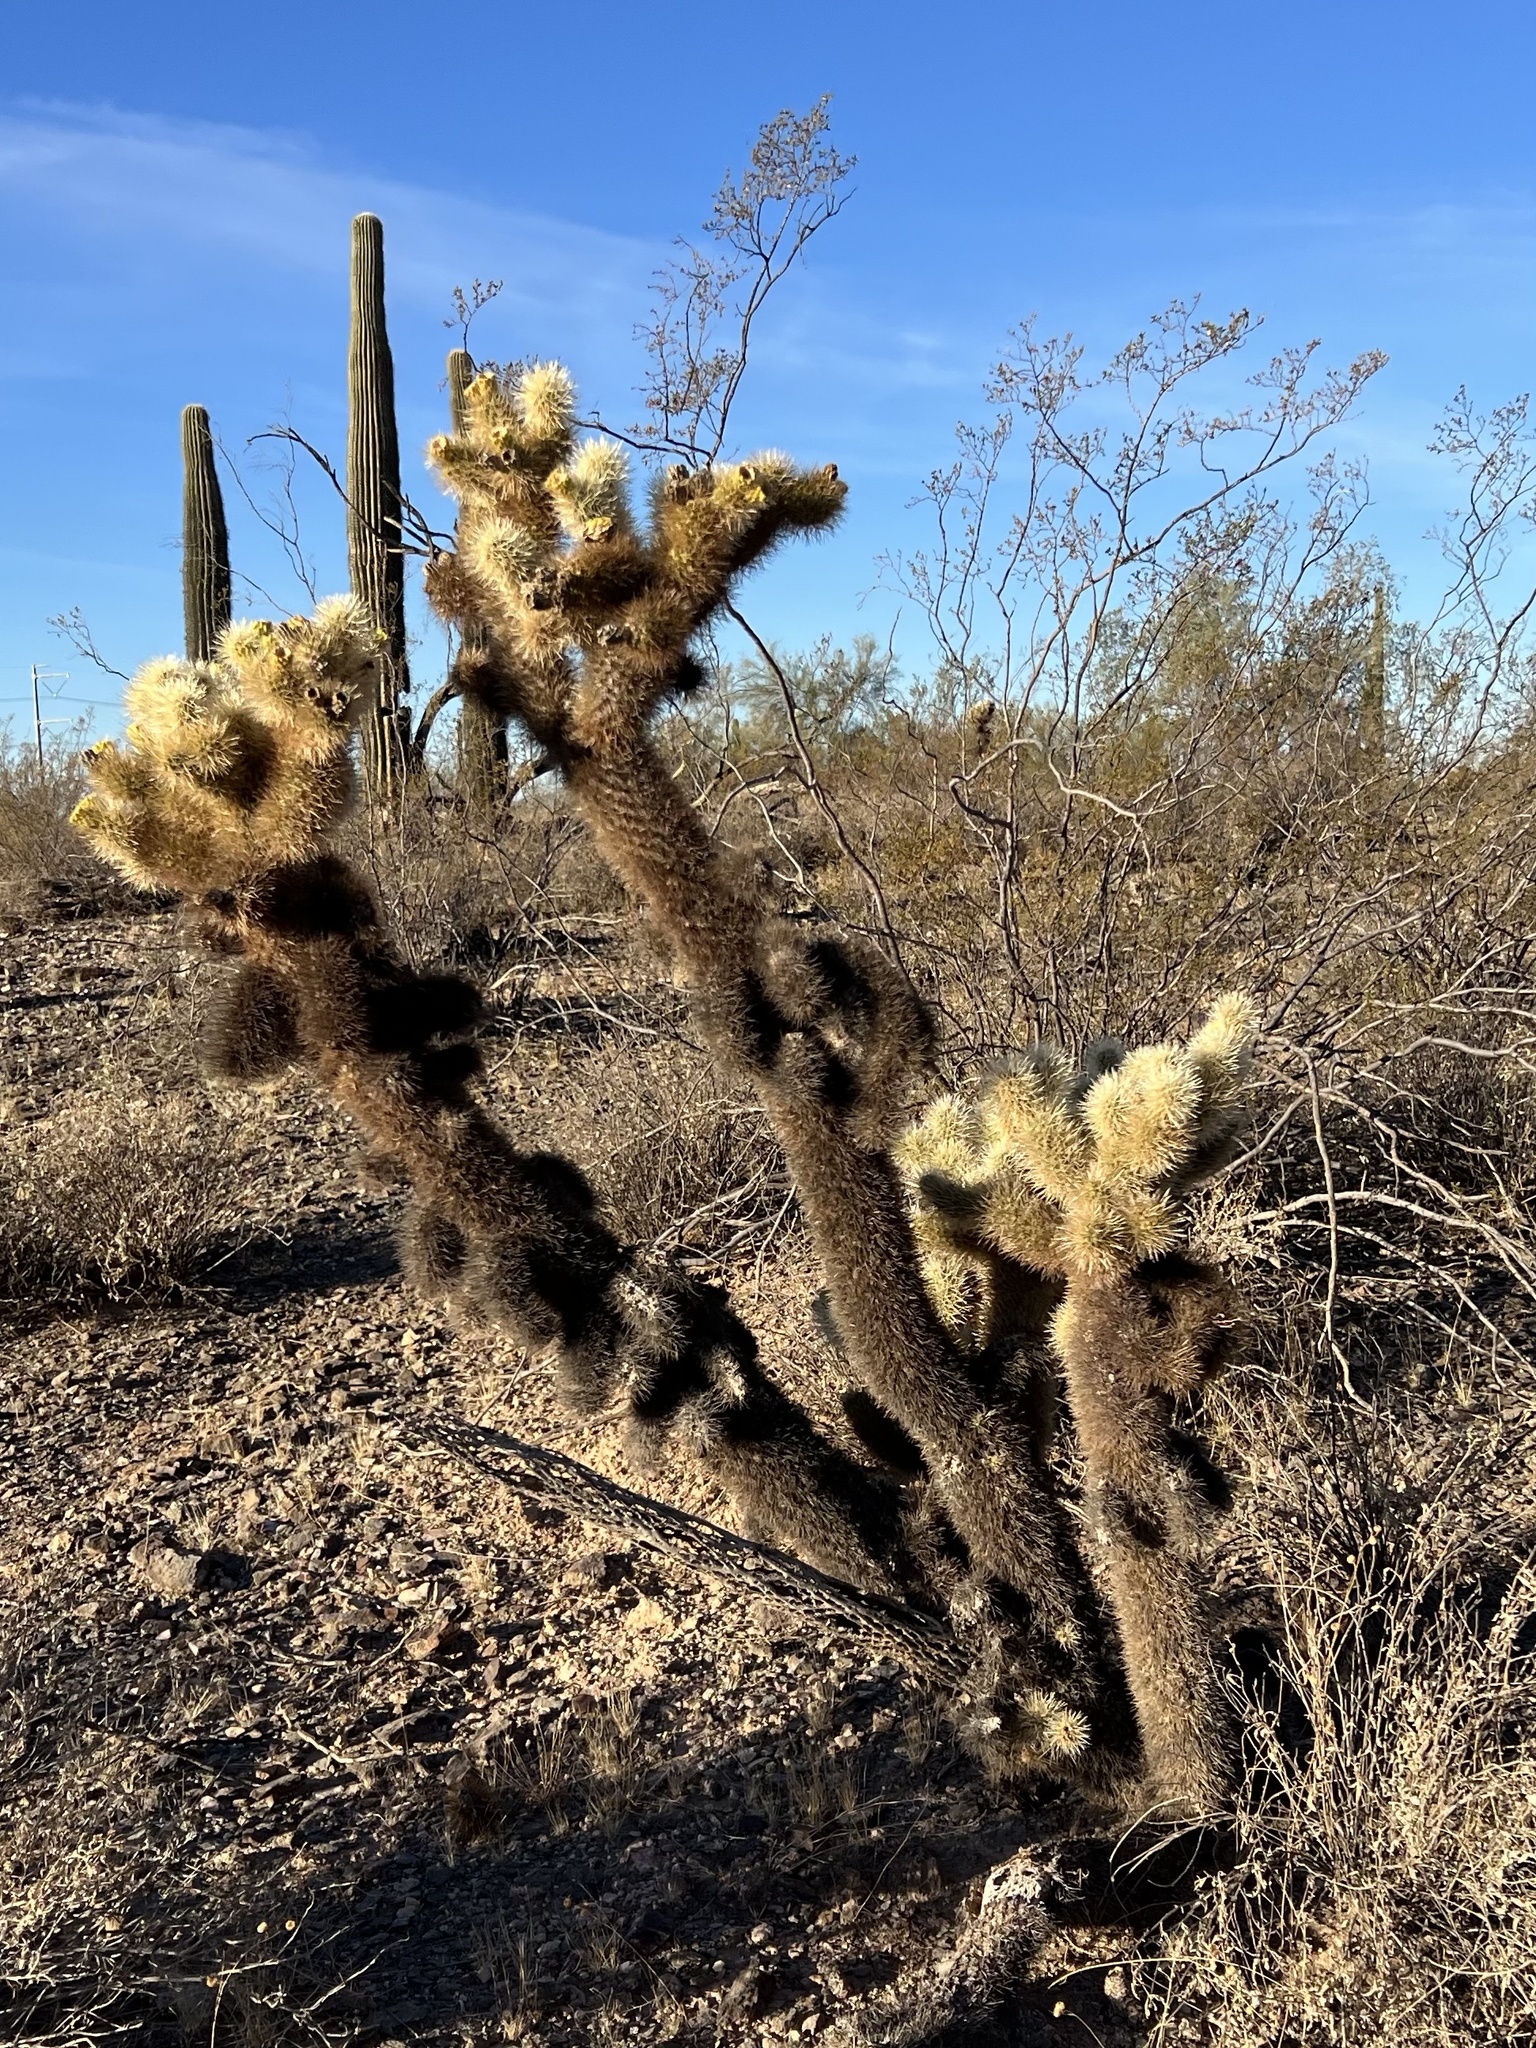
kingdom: Plantae
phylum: Tracheophyta
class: Magnoliopsida
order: Caryophyllales
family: Cactaceae
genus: Cylindropuntia
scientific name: Cylindropuntia fosbergii
